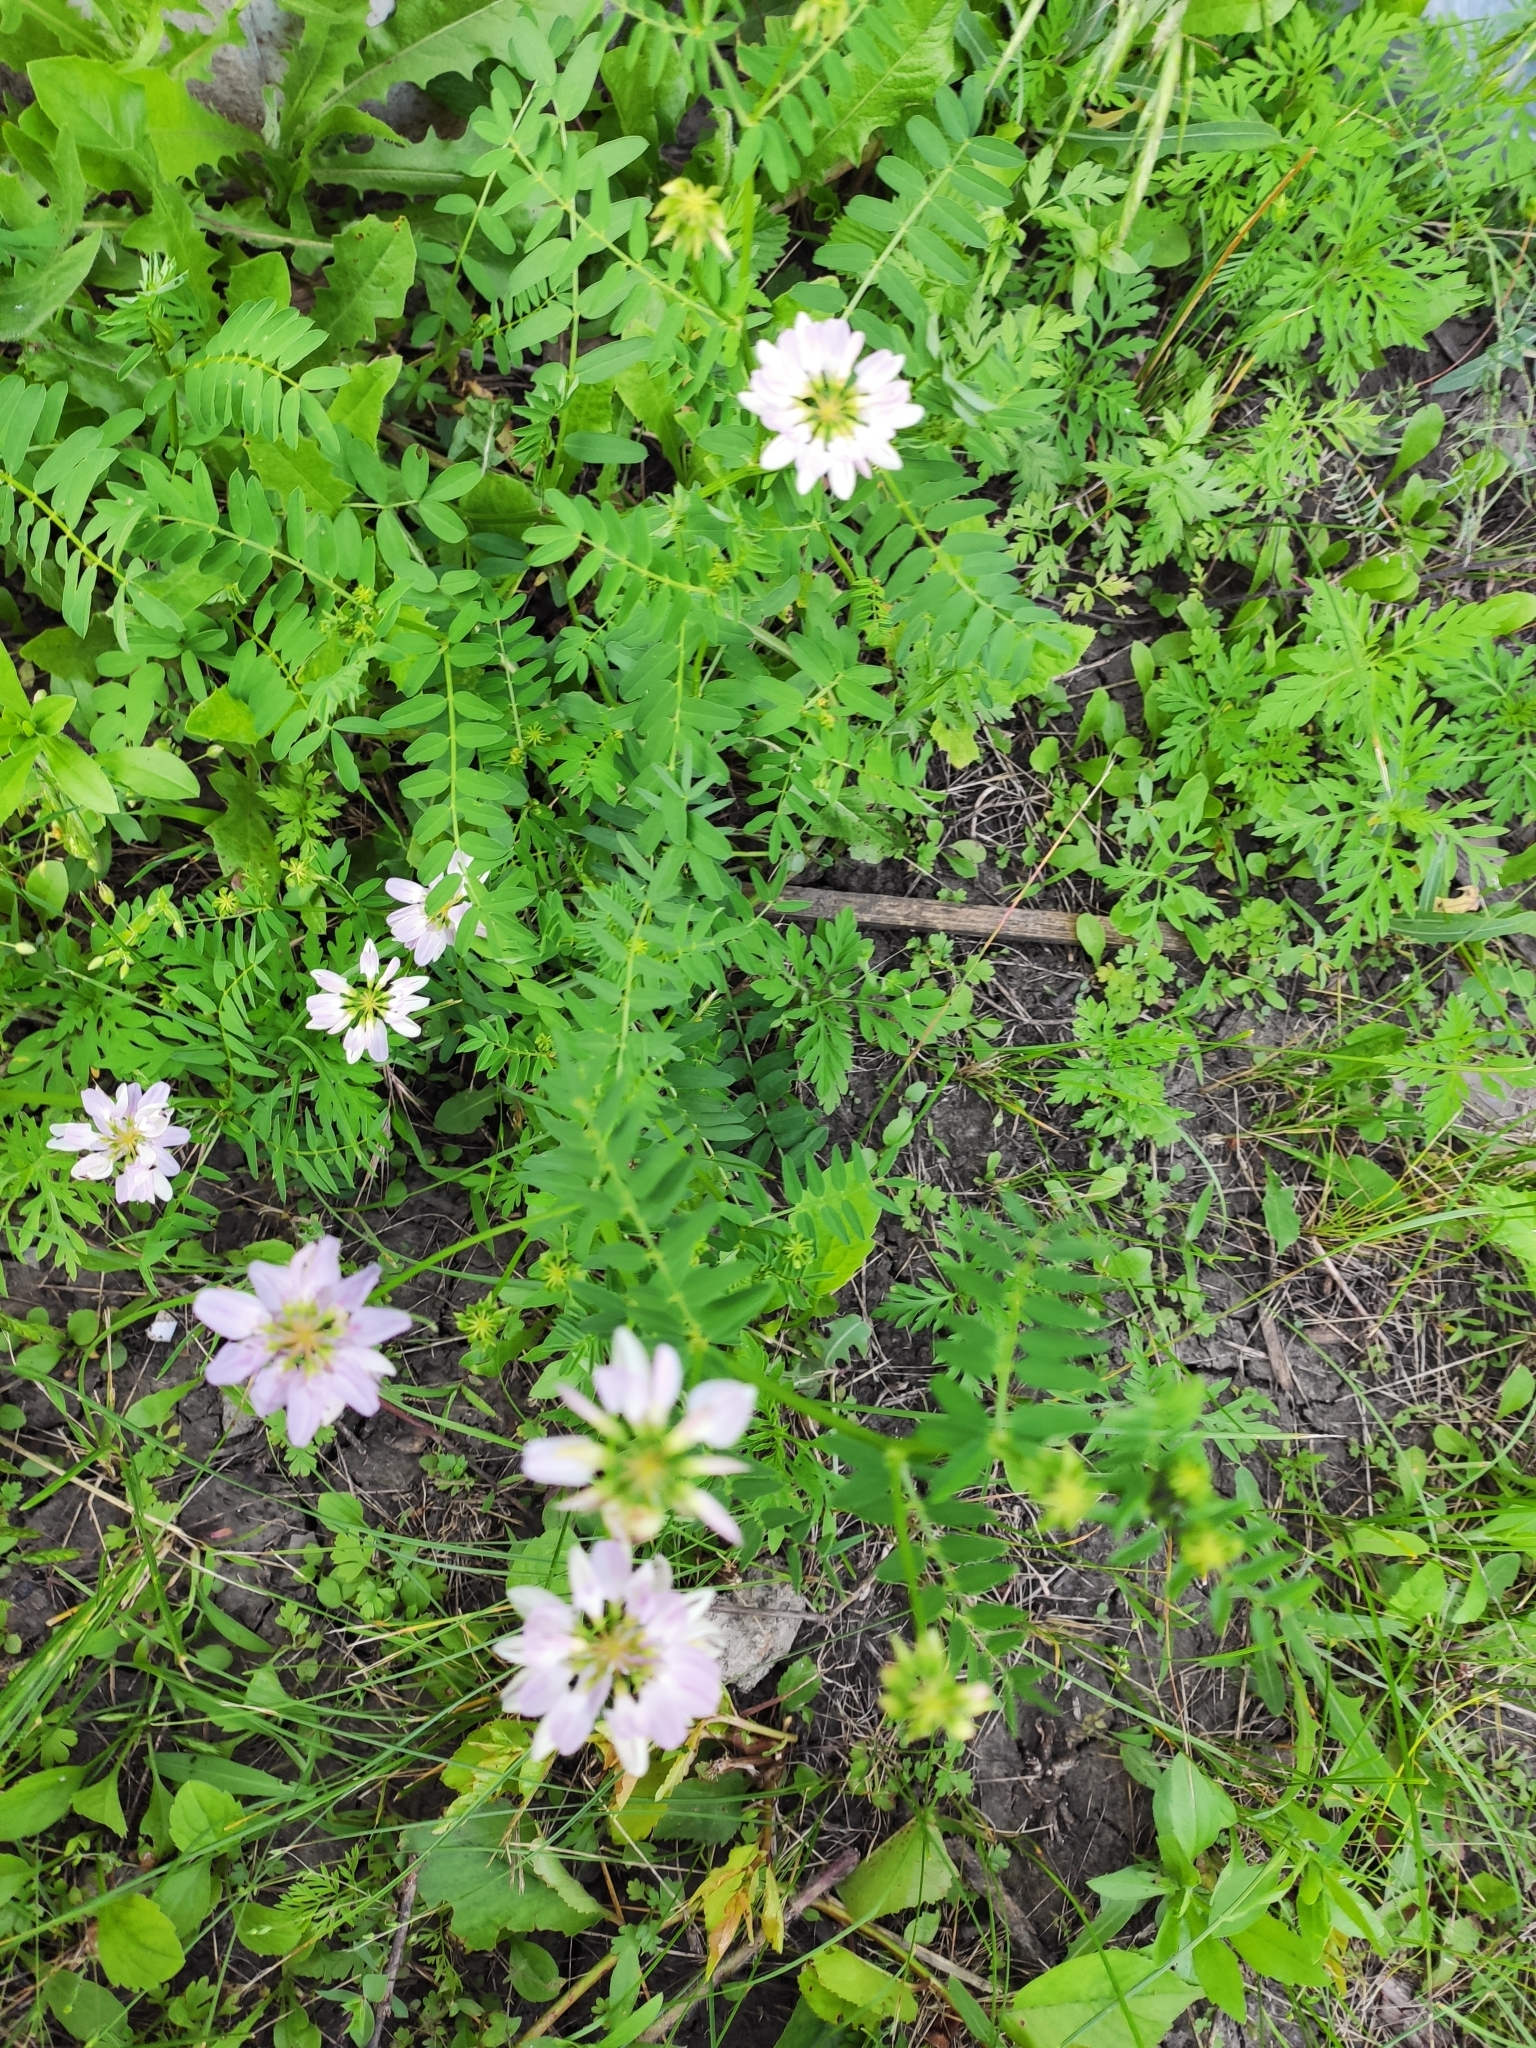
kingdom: Plantae
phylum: Tracheophyta
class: Magnoliopsida
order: Fabales
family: Fabaceae
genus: Coronilla
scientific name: Coronilla varia
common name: Crownvetch
